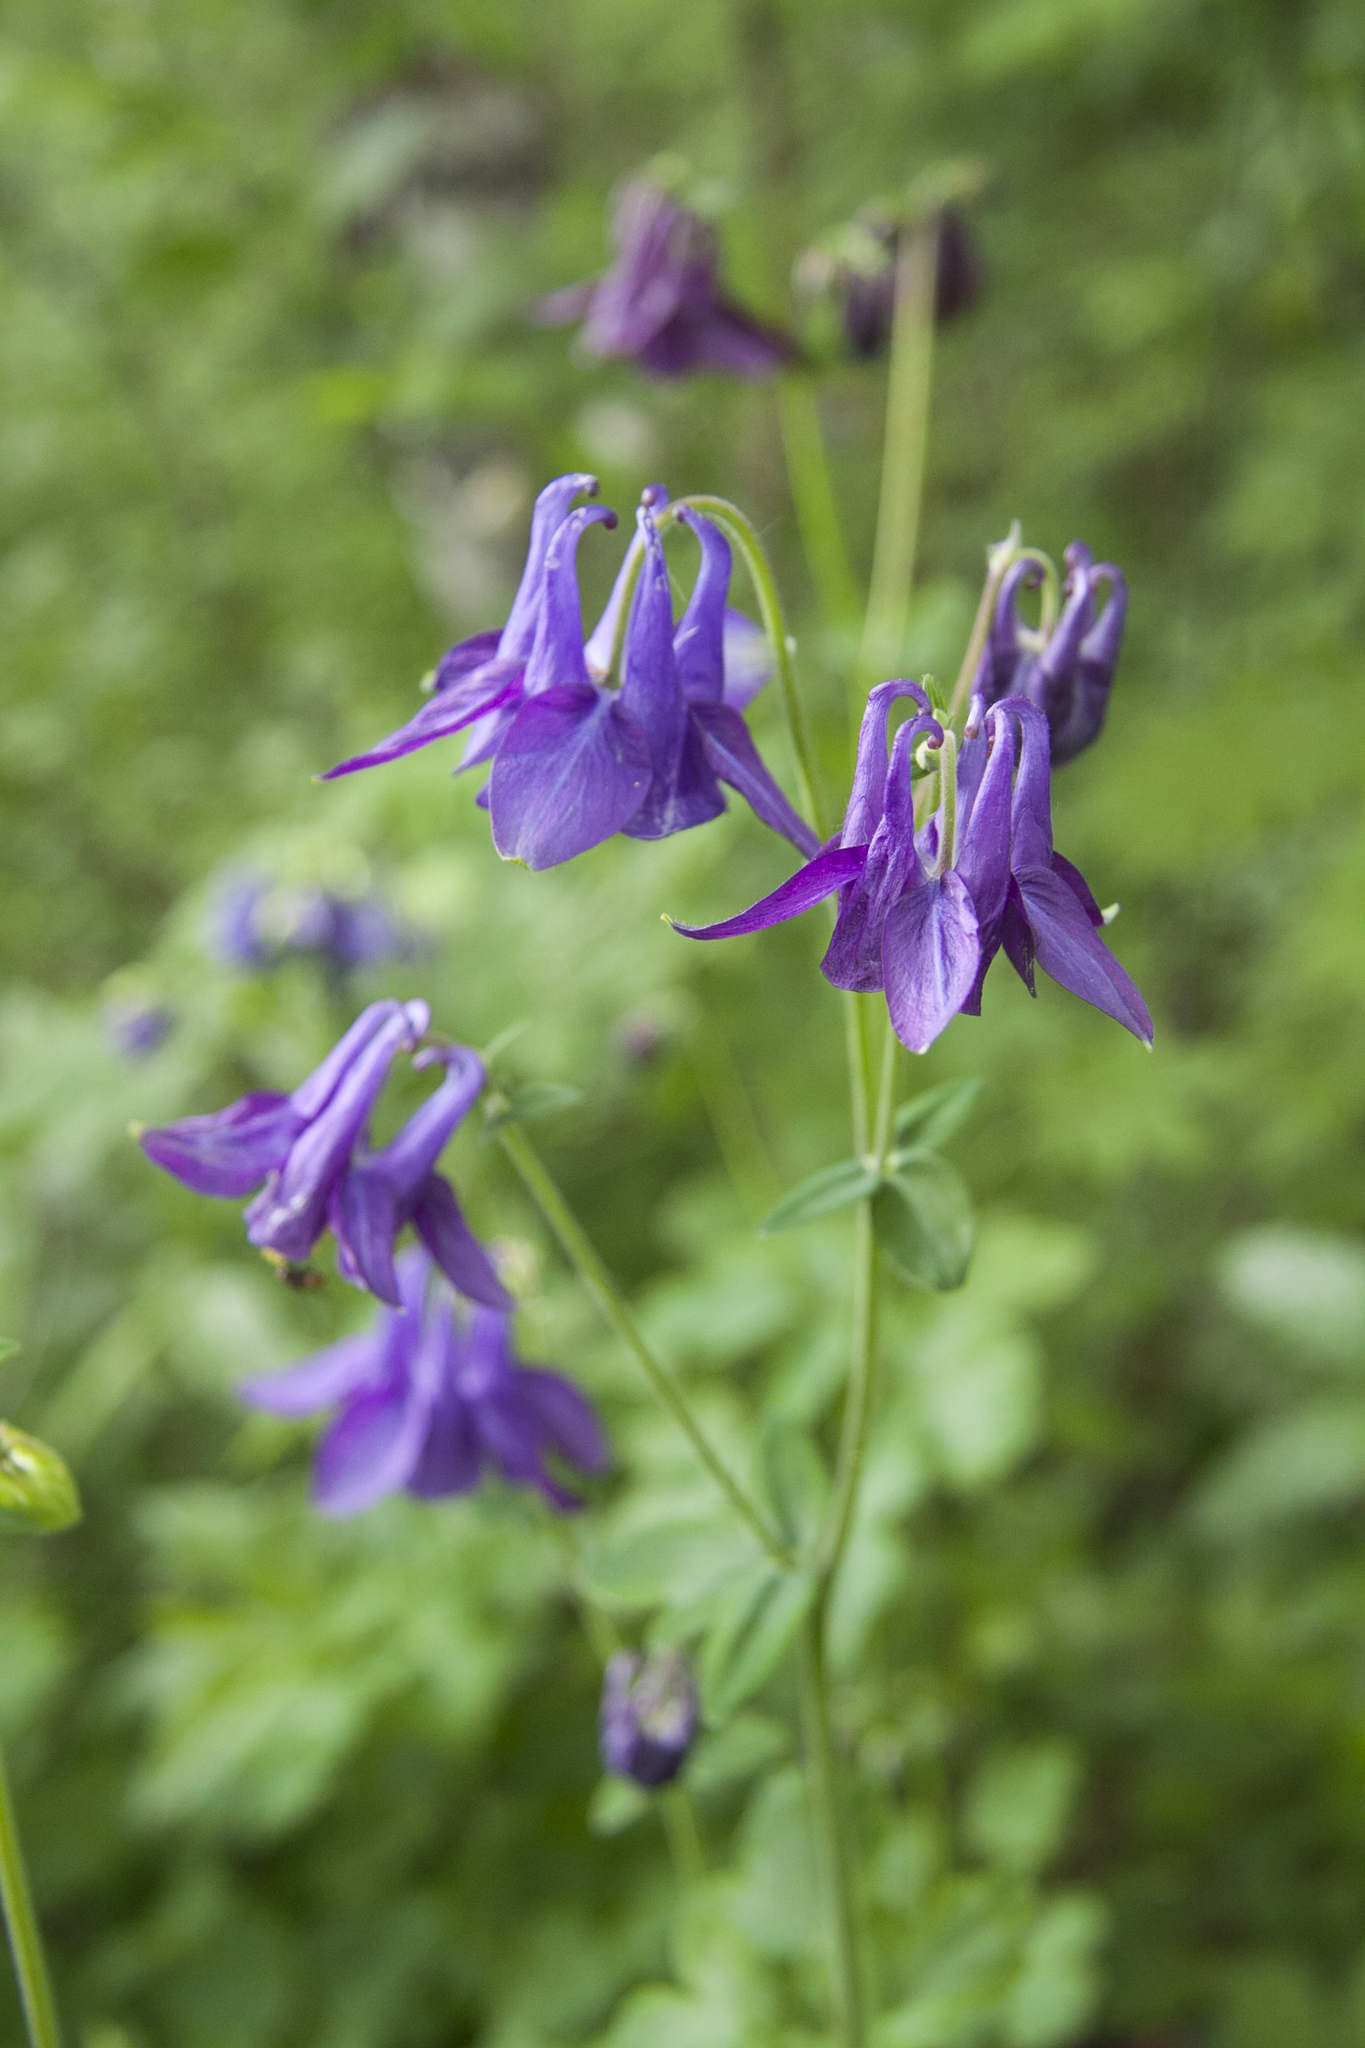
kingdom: Plantae
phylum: Tracheophyta
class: Magnoliopsida
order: Ranunculales
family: Ranunculaceae
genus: Aquilegia
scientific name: Aquilegia vulgaris
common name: Columbine
